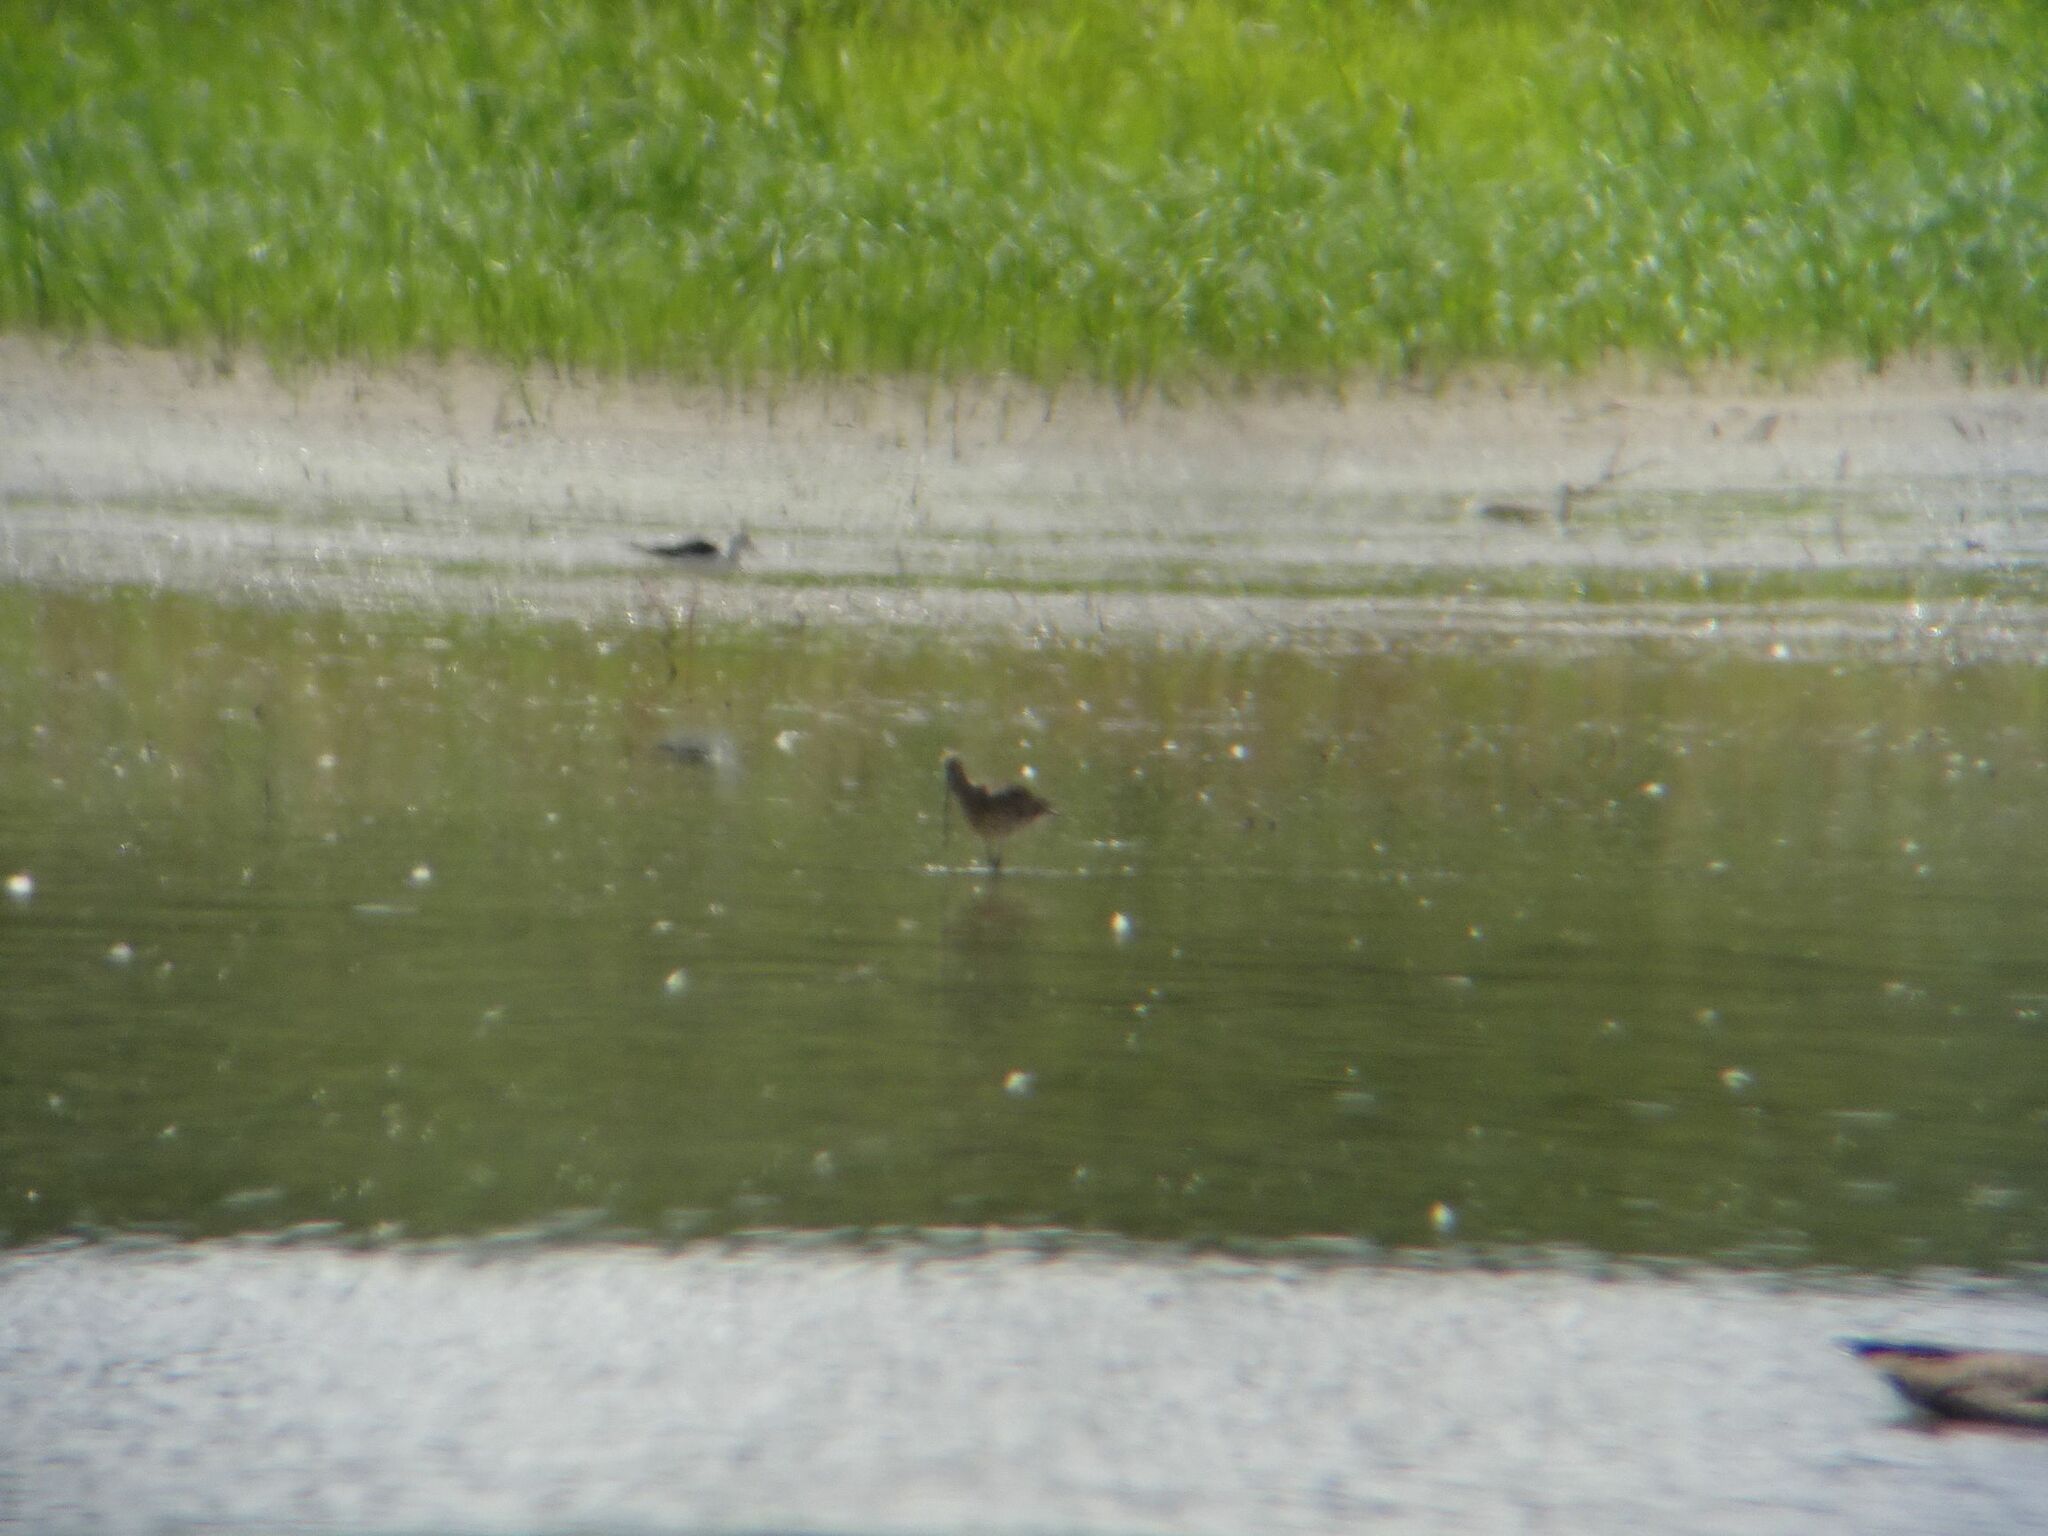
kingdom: Animalia
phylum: Chordata
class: Aves
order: Charadriiformes
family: Scolopacidae
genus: Numenius
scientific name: Numenius arquata
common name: Eurasian curlew
